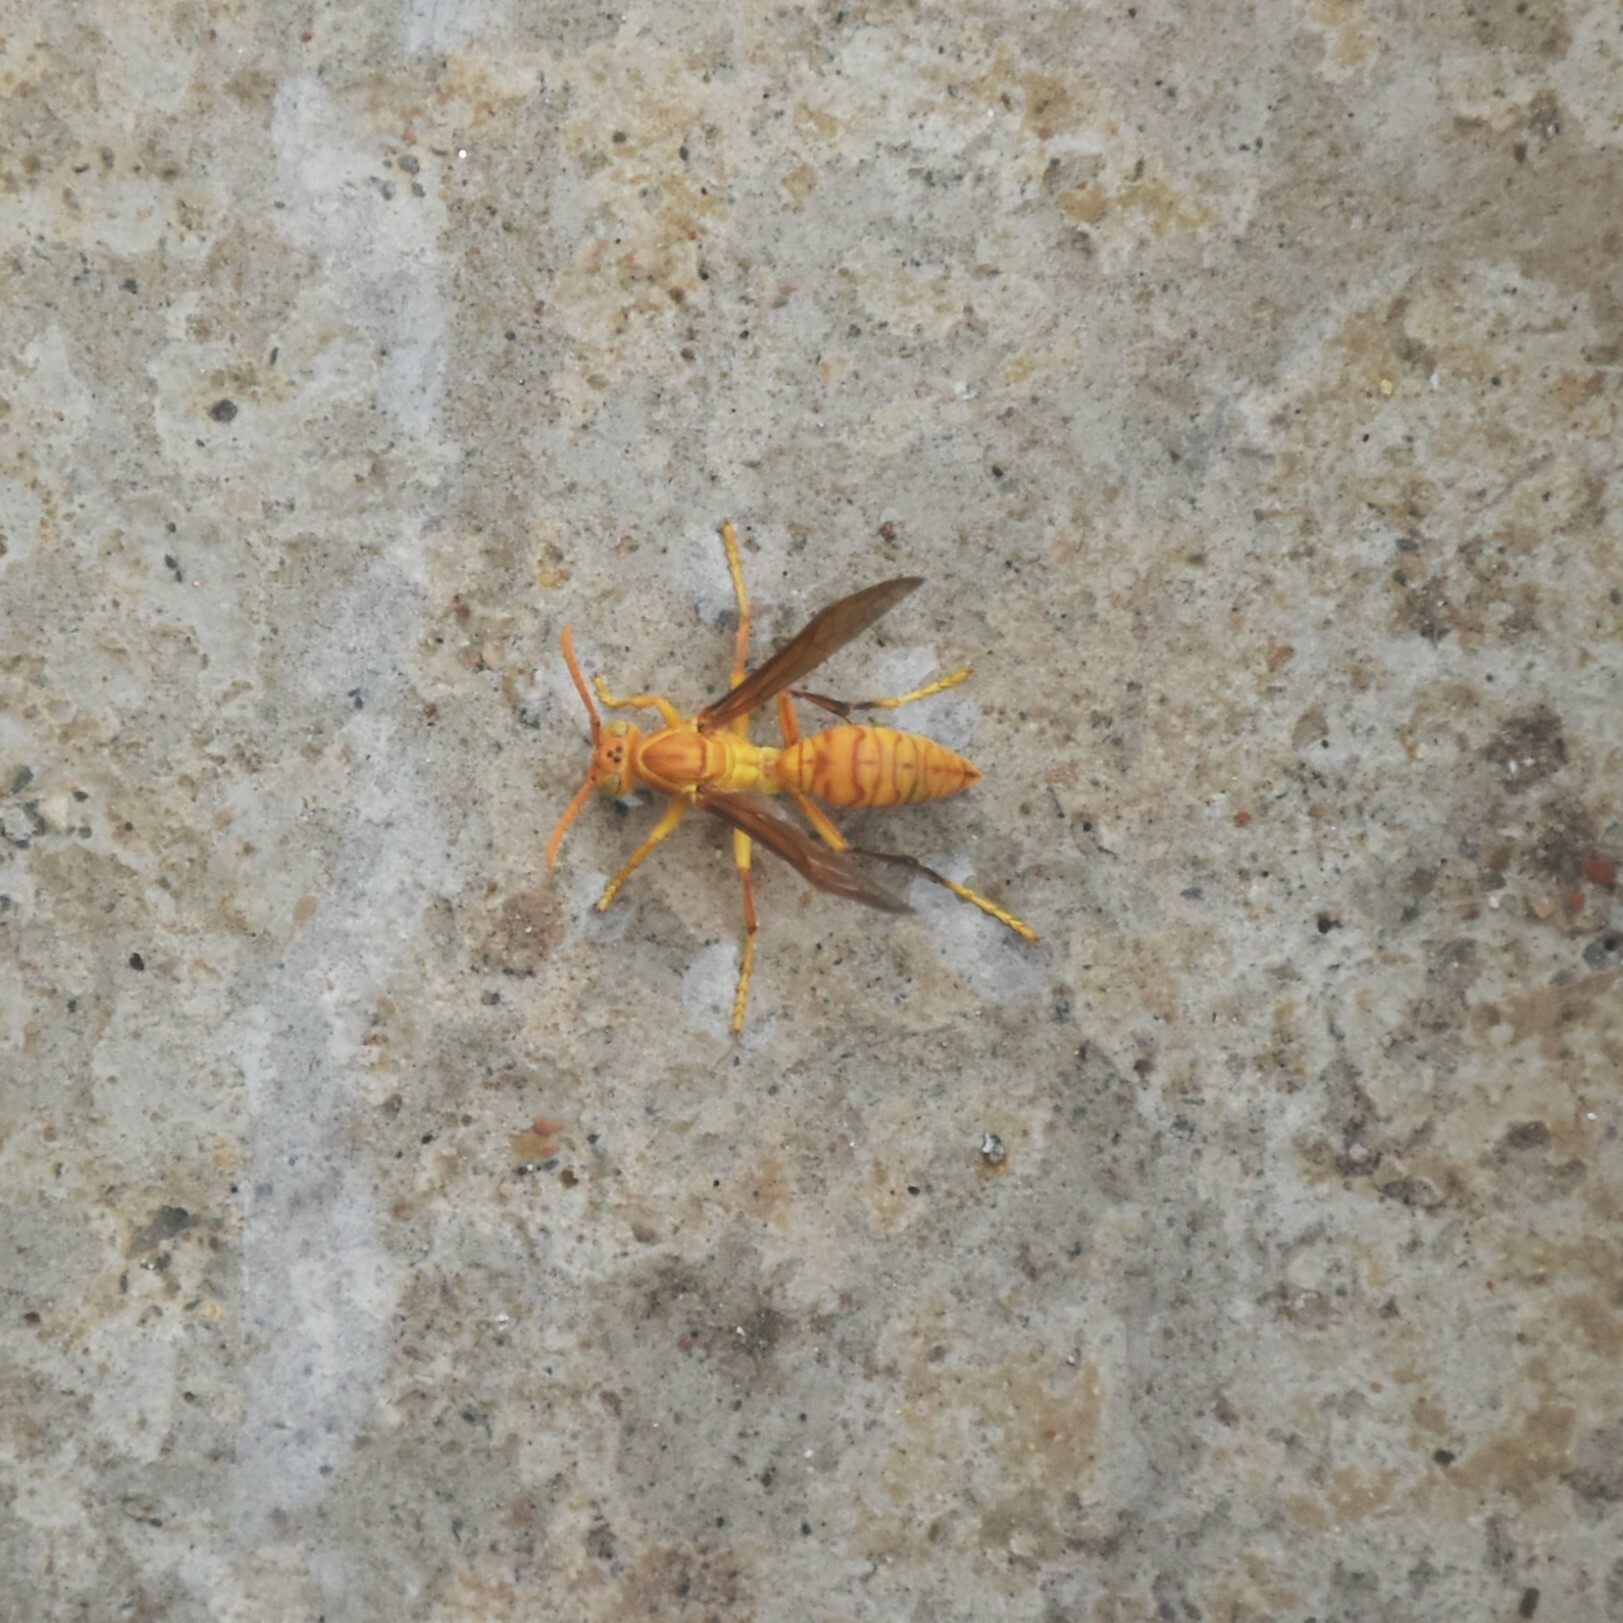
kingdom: Animalia
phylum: Arthropoda
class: Insecta
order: Hymenoptera
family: Eumenidae
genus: Polistes
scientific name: Polistes wattii
